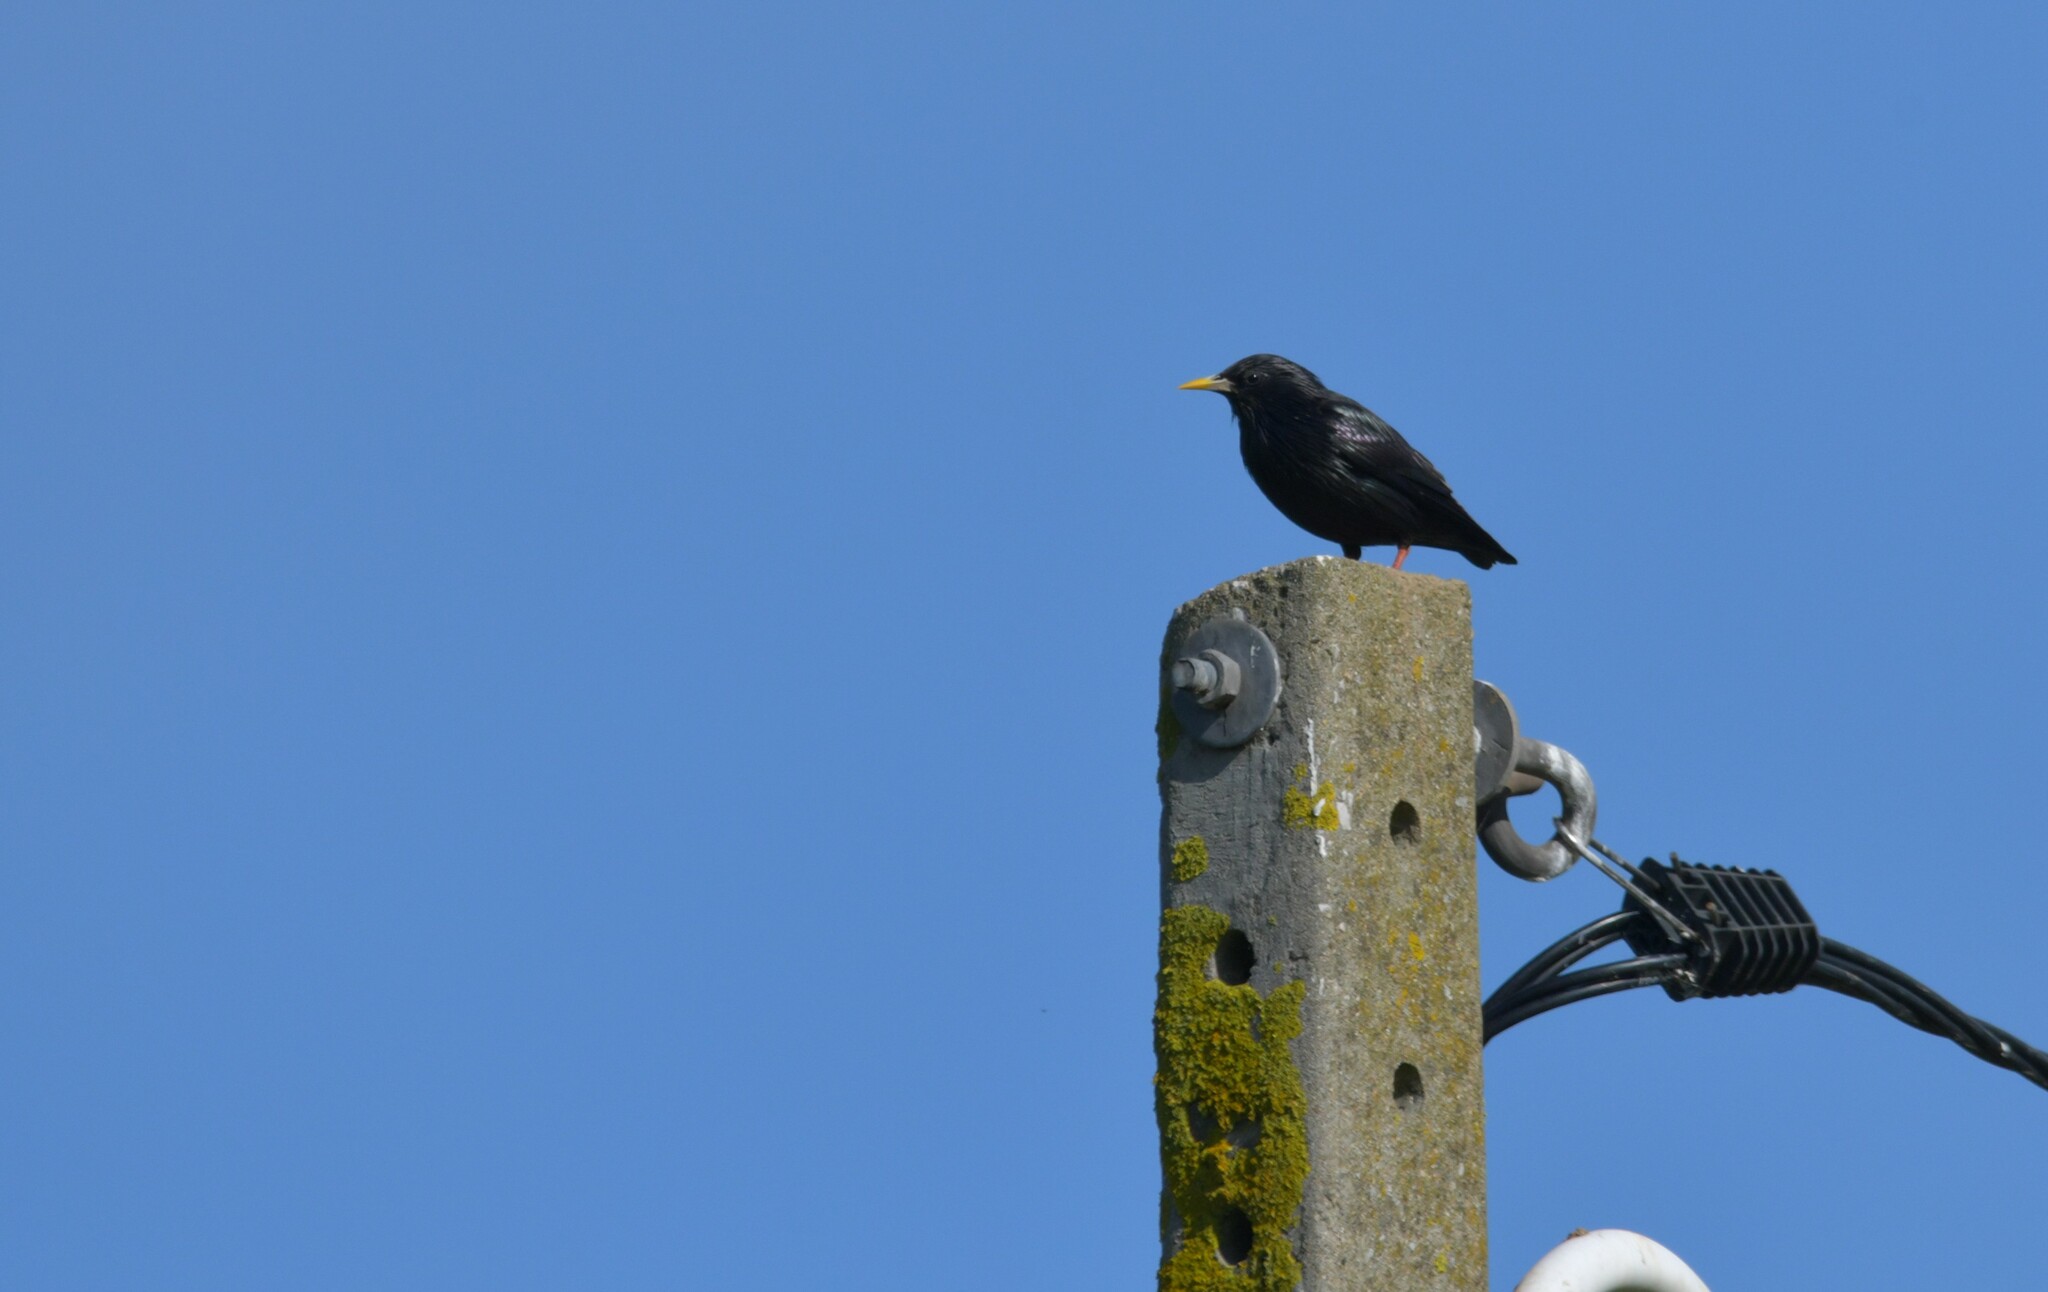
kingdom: Animalia
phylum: Chordata
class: Aves
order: Passeriformes
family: Sturnidae
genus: Sturnus
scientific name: Sturnus unicolor
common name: Spotless starling
